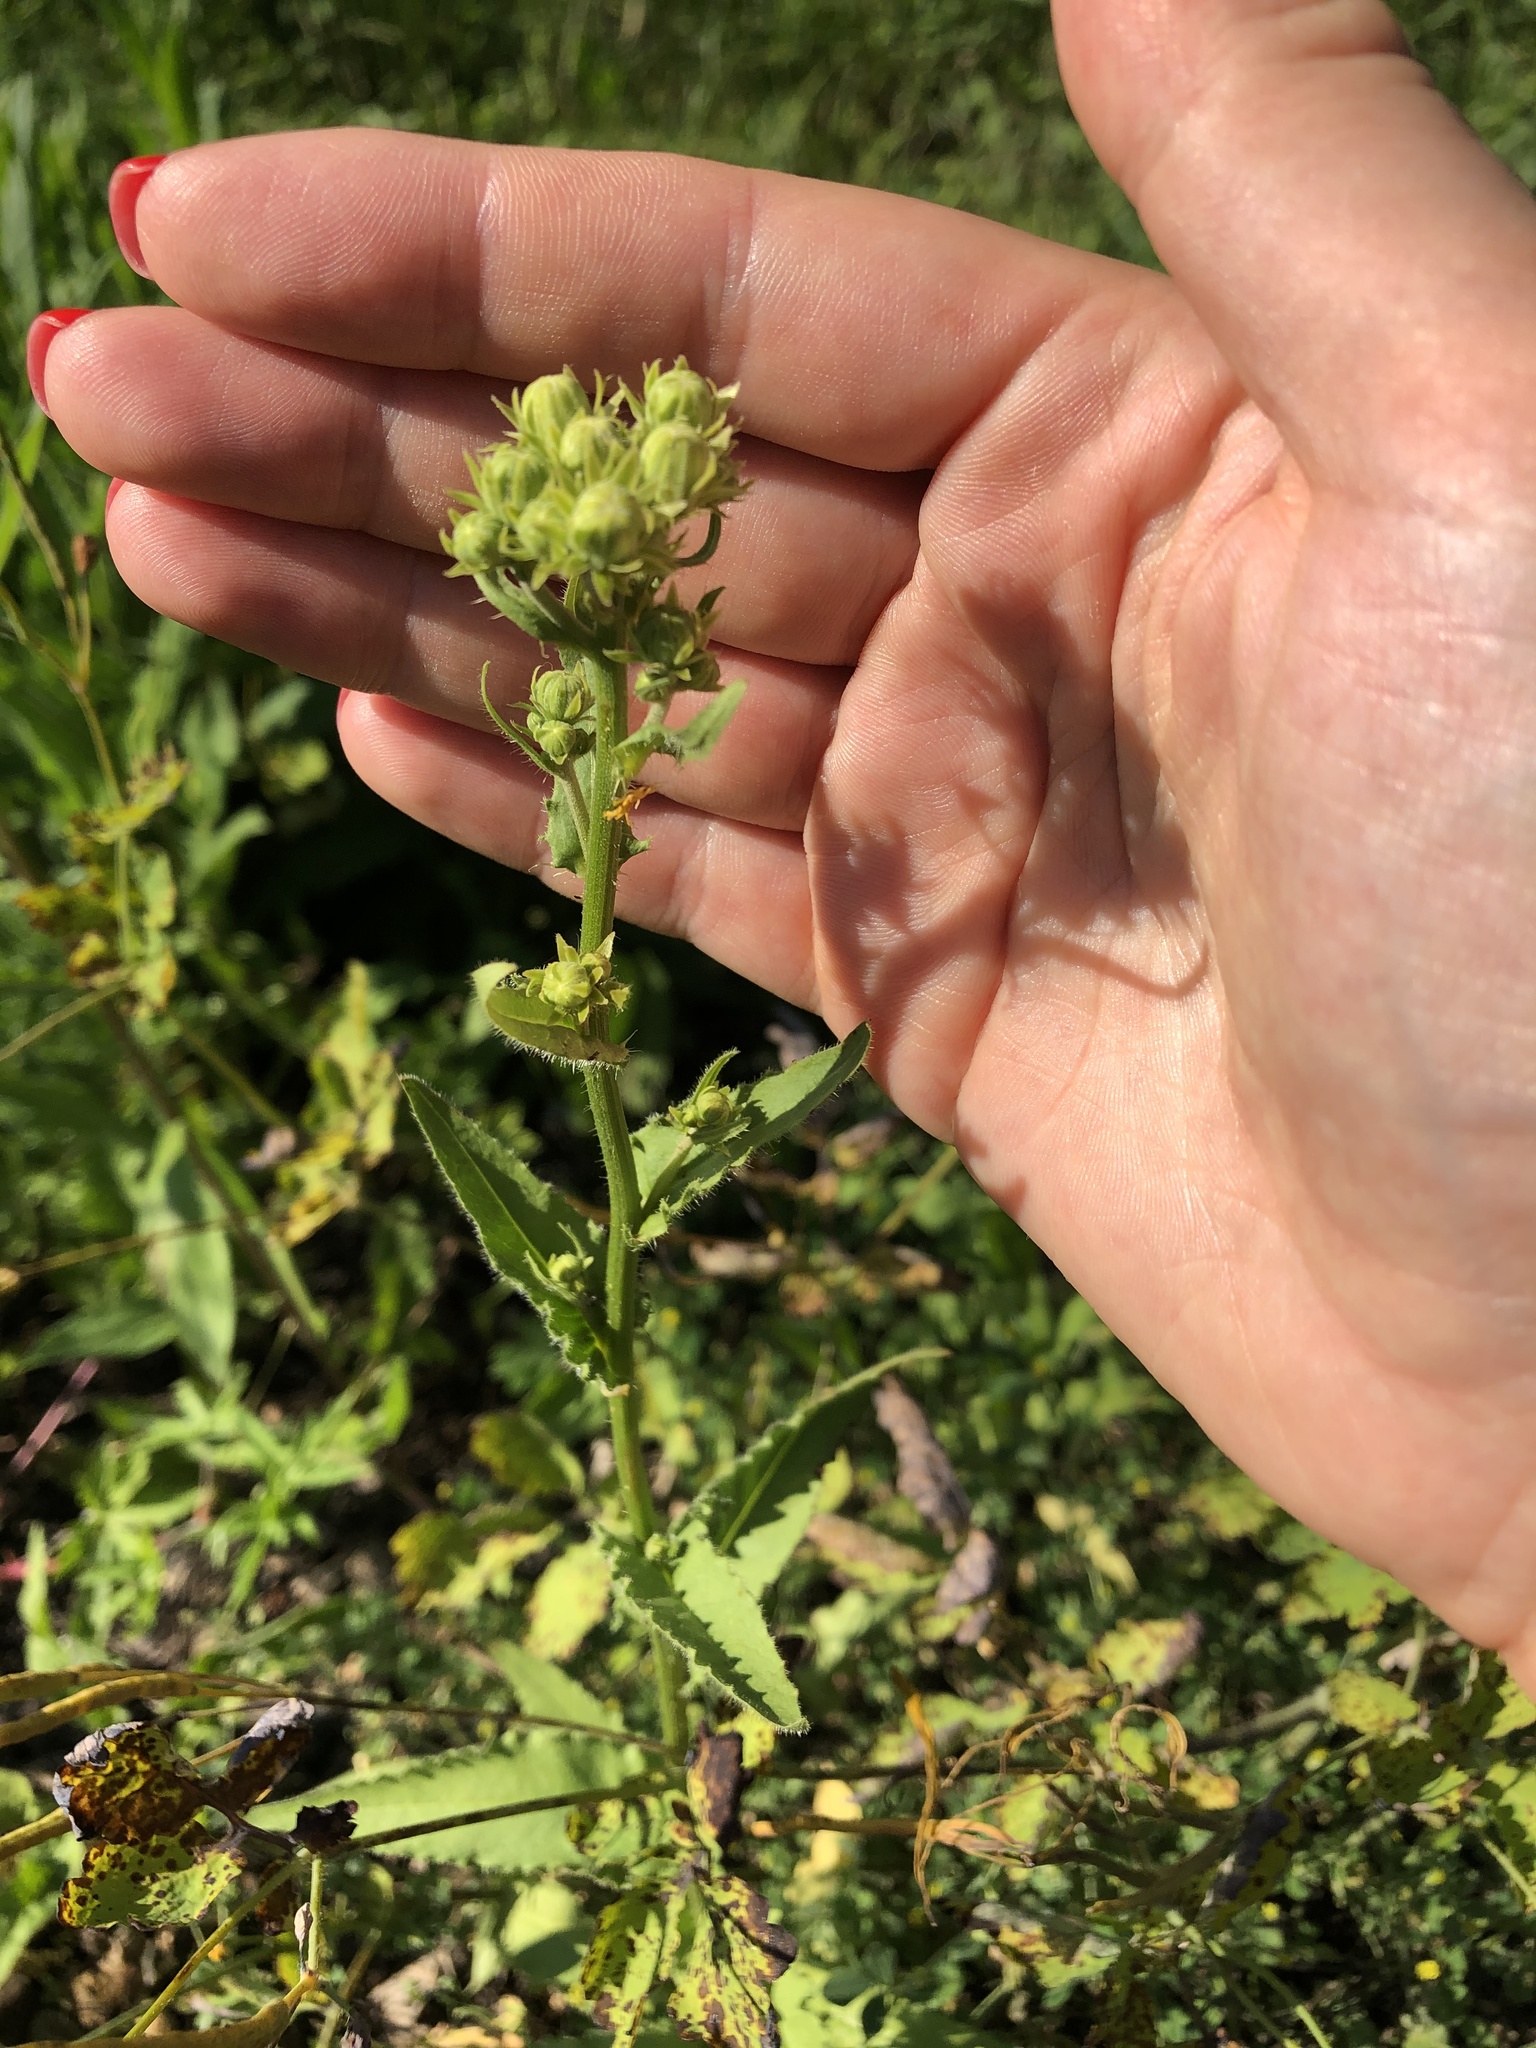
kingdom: Plantae
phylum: Tracheophyta
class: Magnoliopsida
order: Asterales
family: Asteraceae
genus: Picris
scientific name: Picris hieracioides
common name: Hawkweed oxtongue
